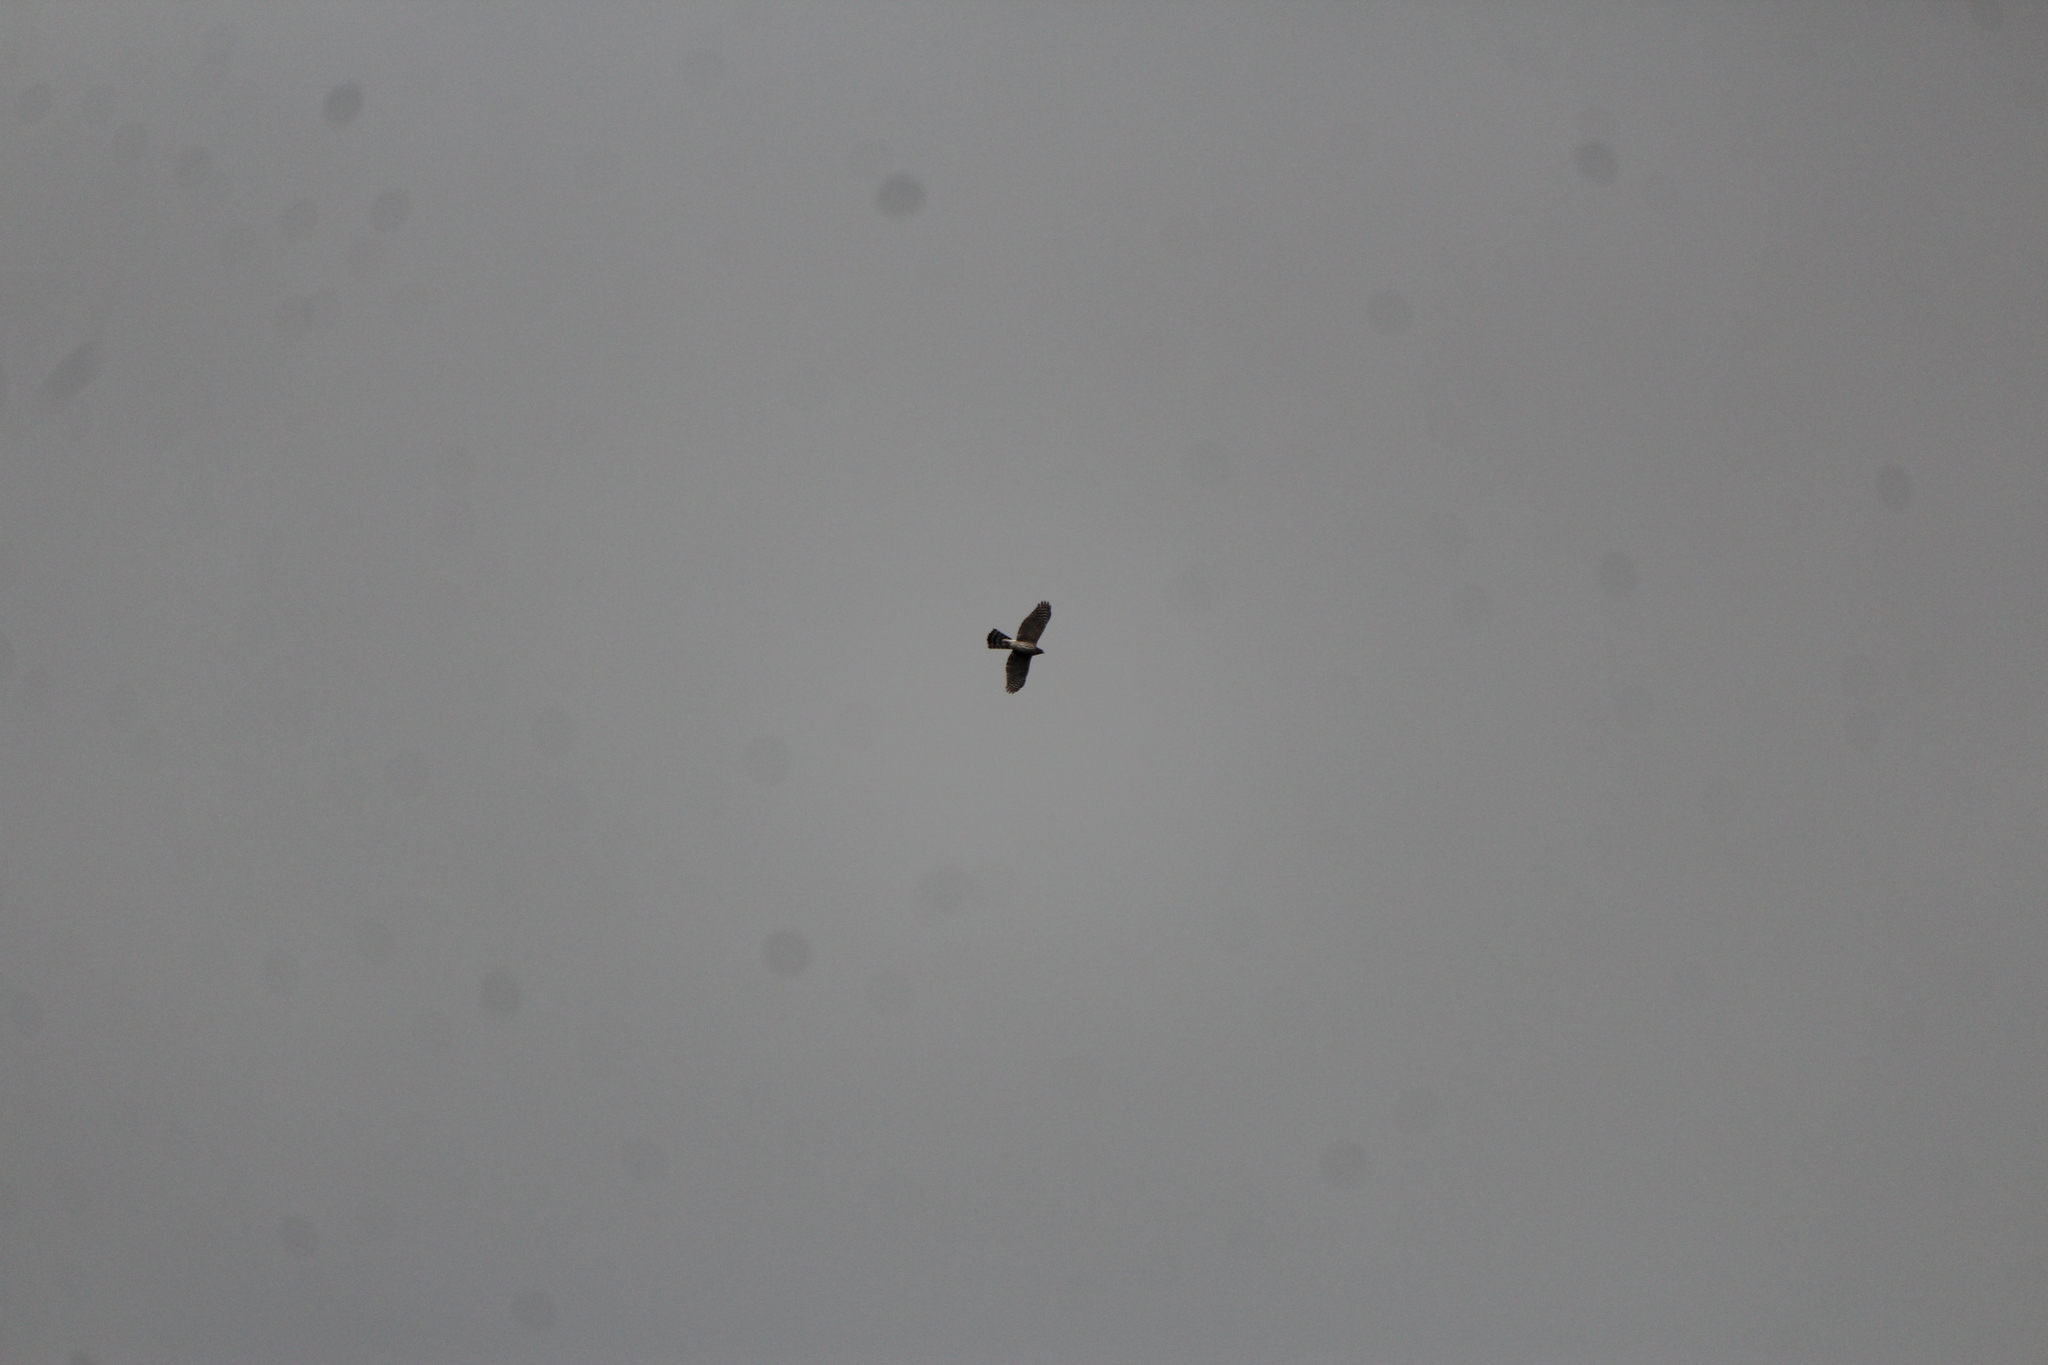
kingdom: Animalia
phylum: Chordata
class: Aves
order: Accipitriformes
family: Accipitridae
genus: Accipiter
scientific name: Accipiter cooperii
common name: Cooper's hawk
